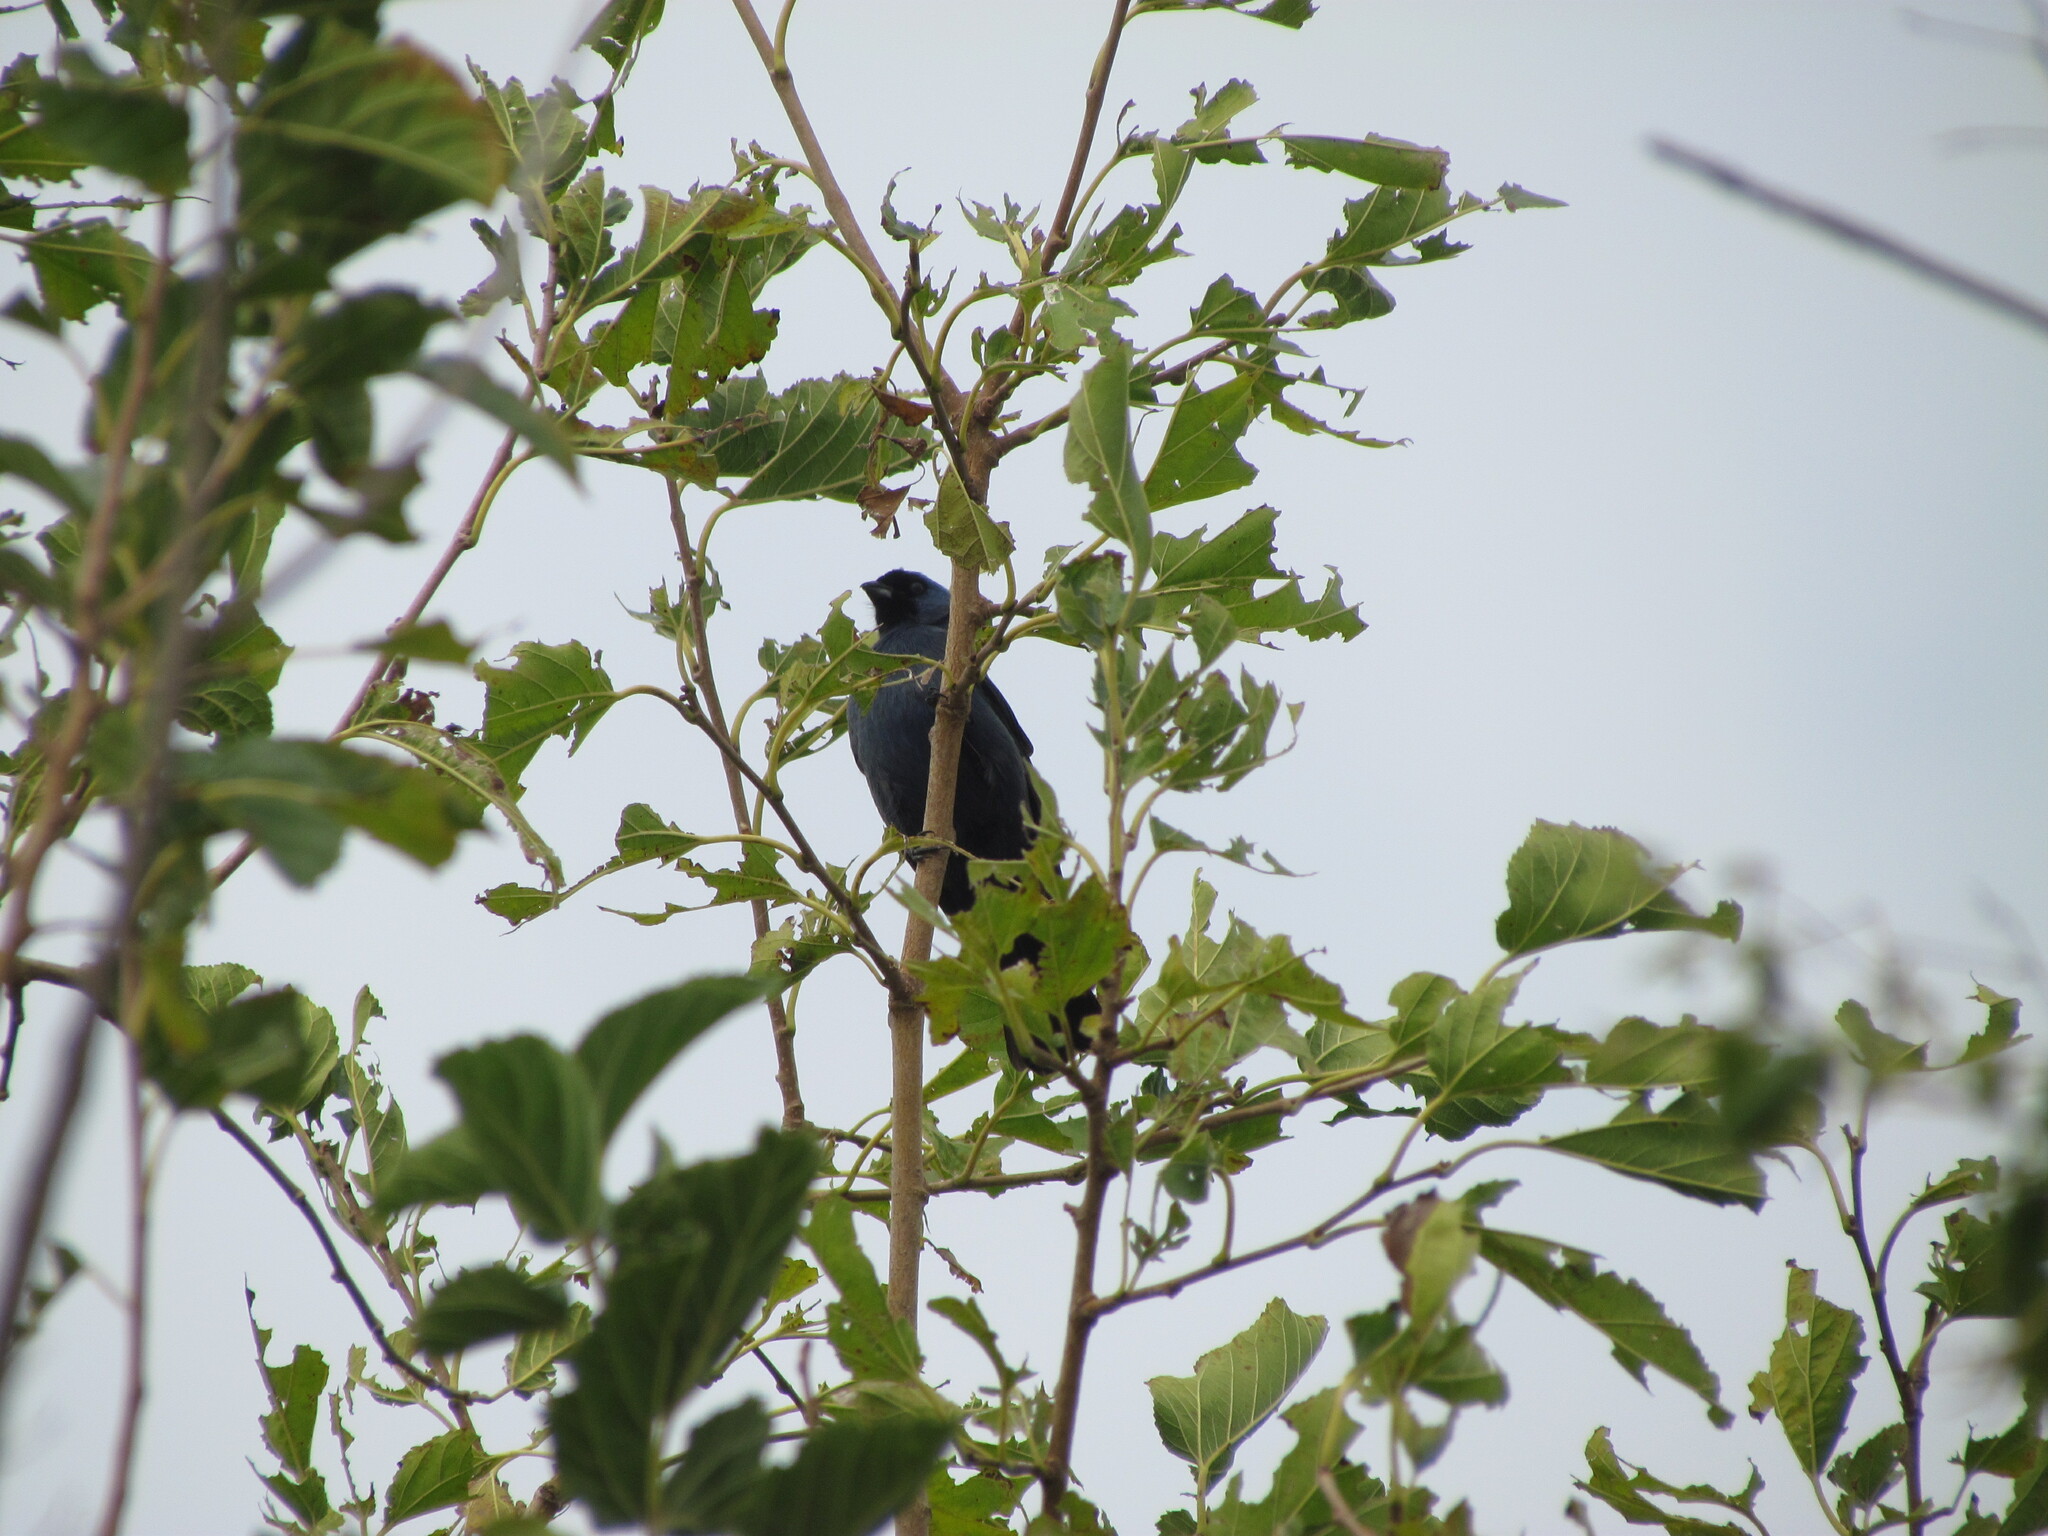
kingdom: Animalia
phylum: Chordata
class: Aves
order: Passeriformes
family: Thraupidae
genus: Stephanophorus
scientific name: Stephanophorus diadematus
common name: Diademed tanager
